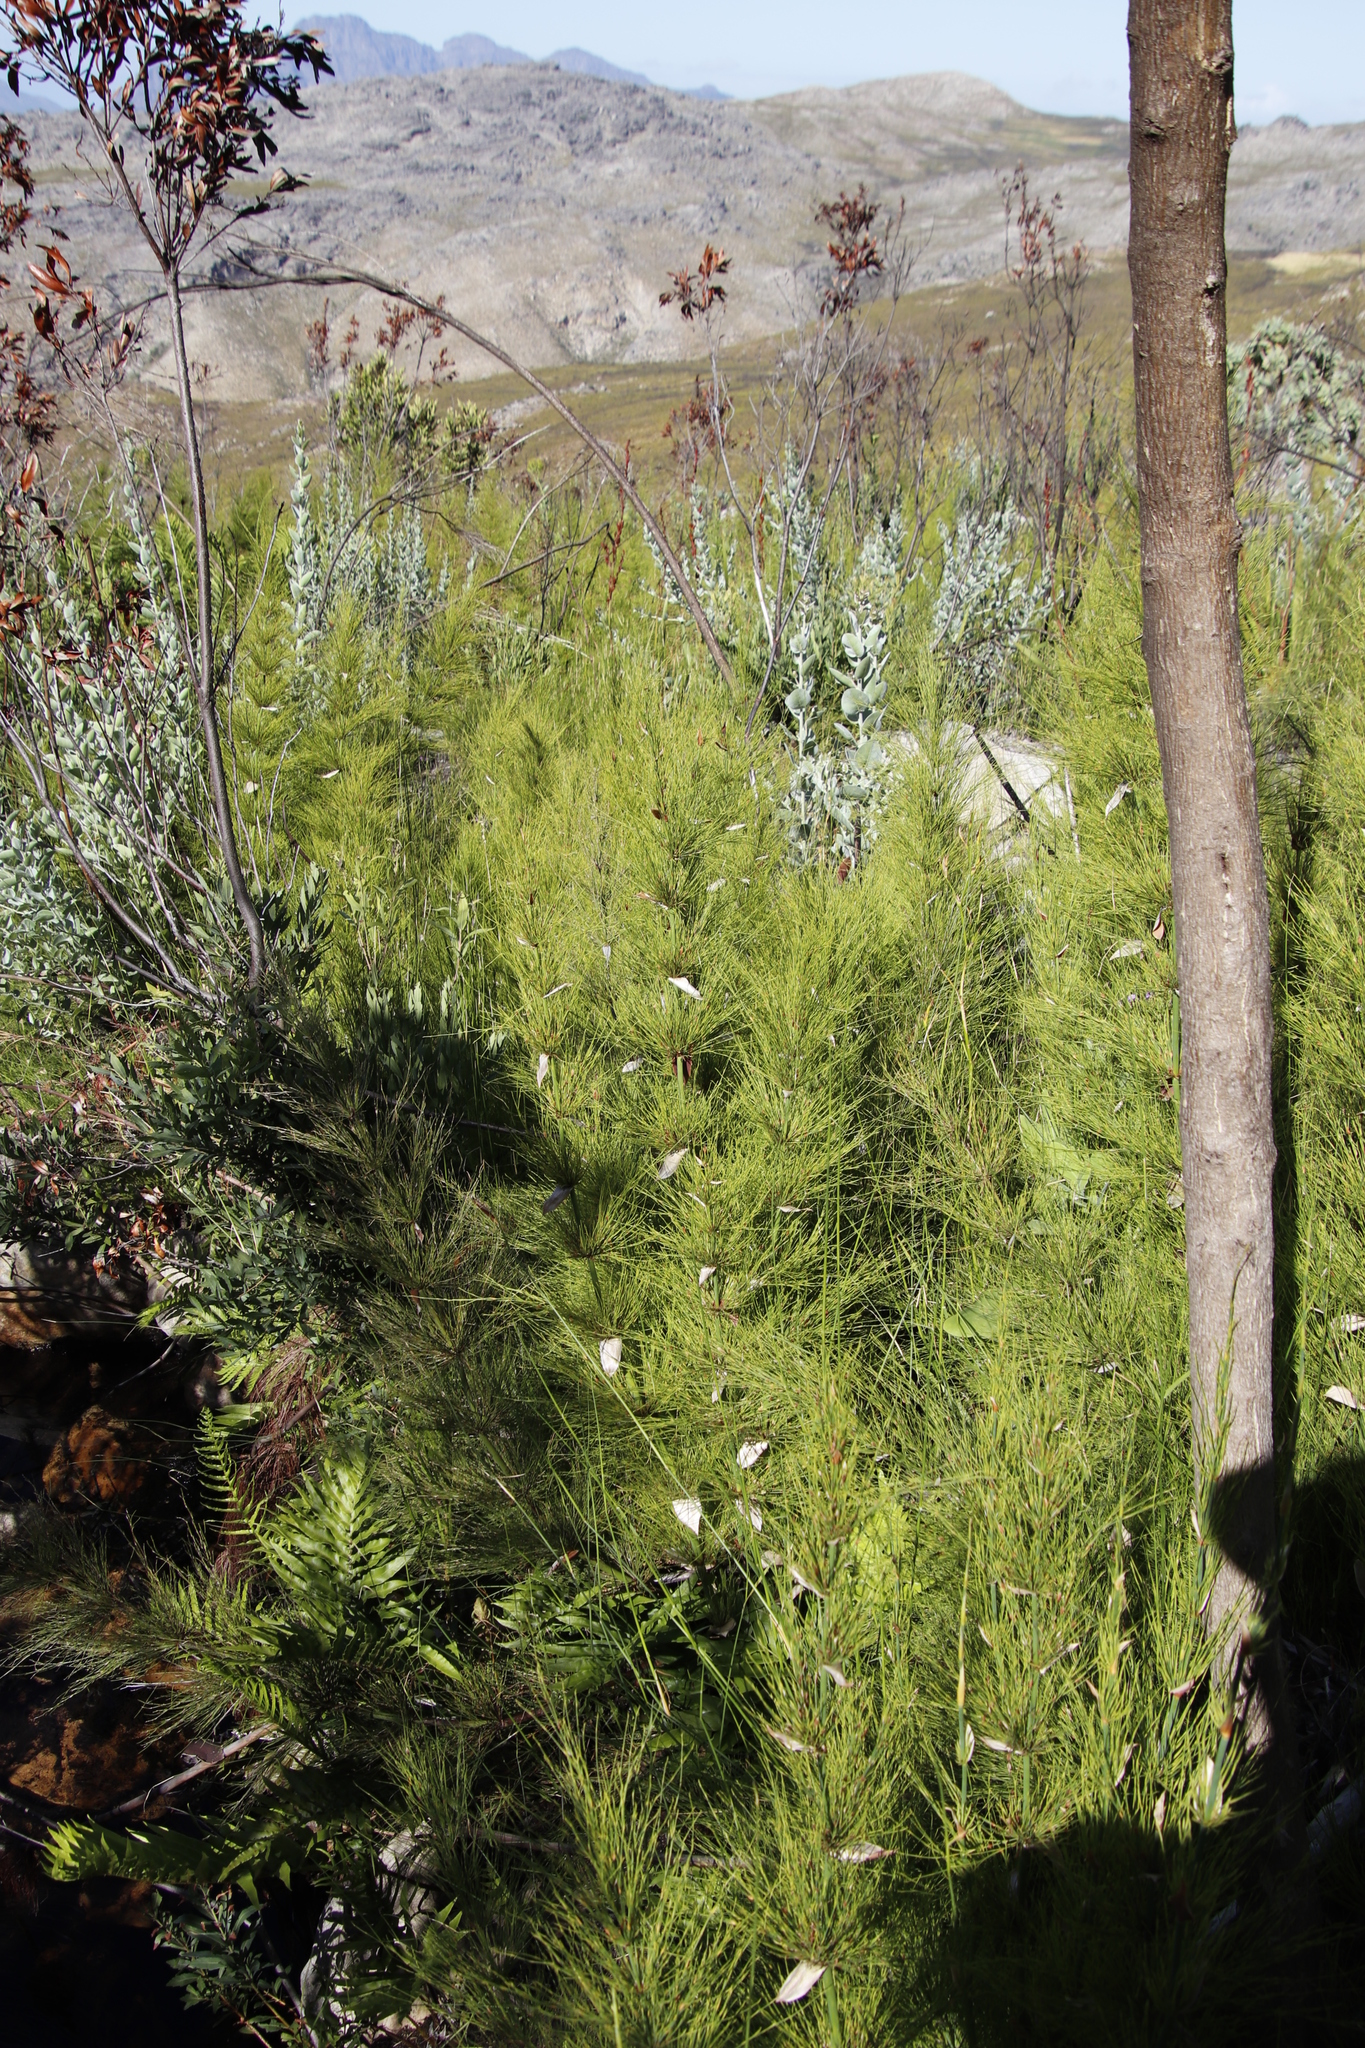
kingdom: Plantae
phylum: Tracheophyta
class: Liliopsida
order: Poales
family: Restionaceae
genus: Elegia
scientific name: Elegia capensis
